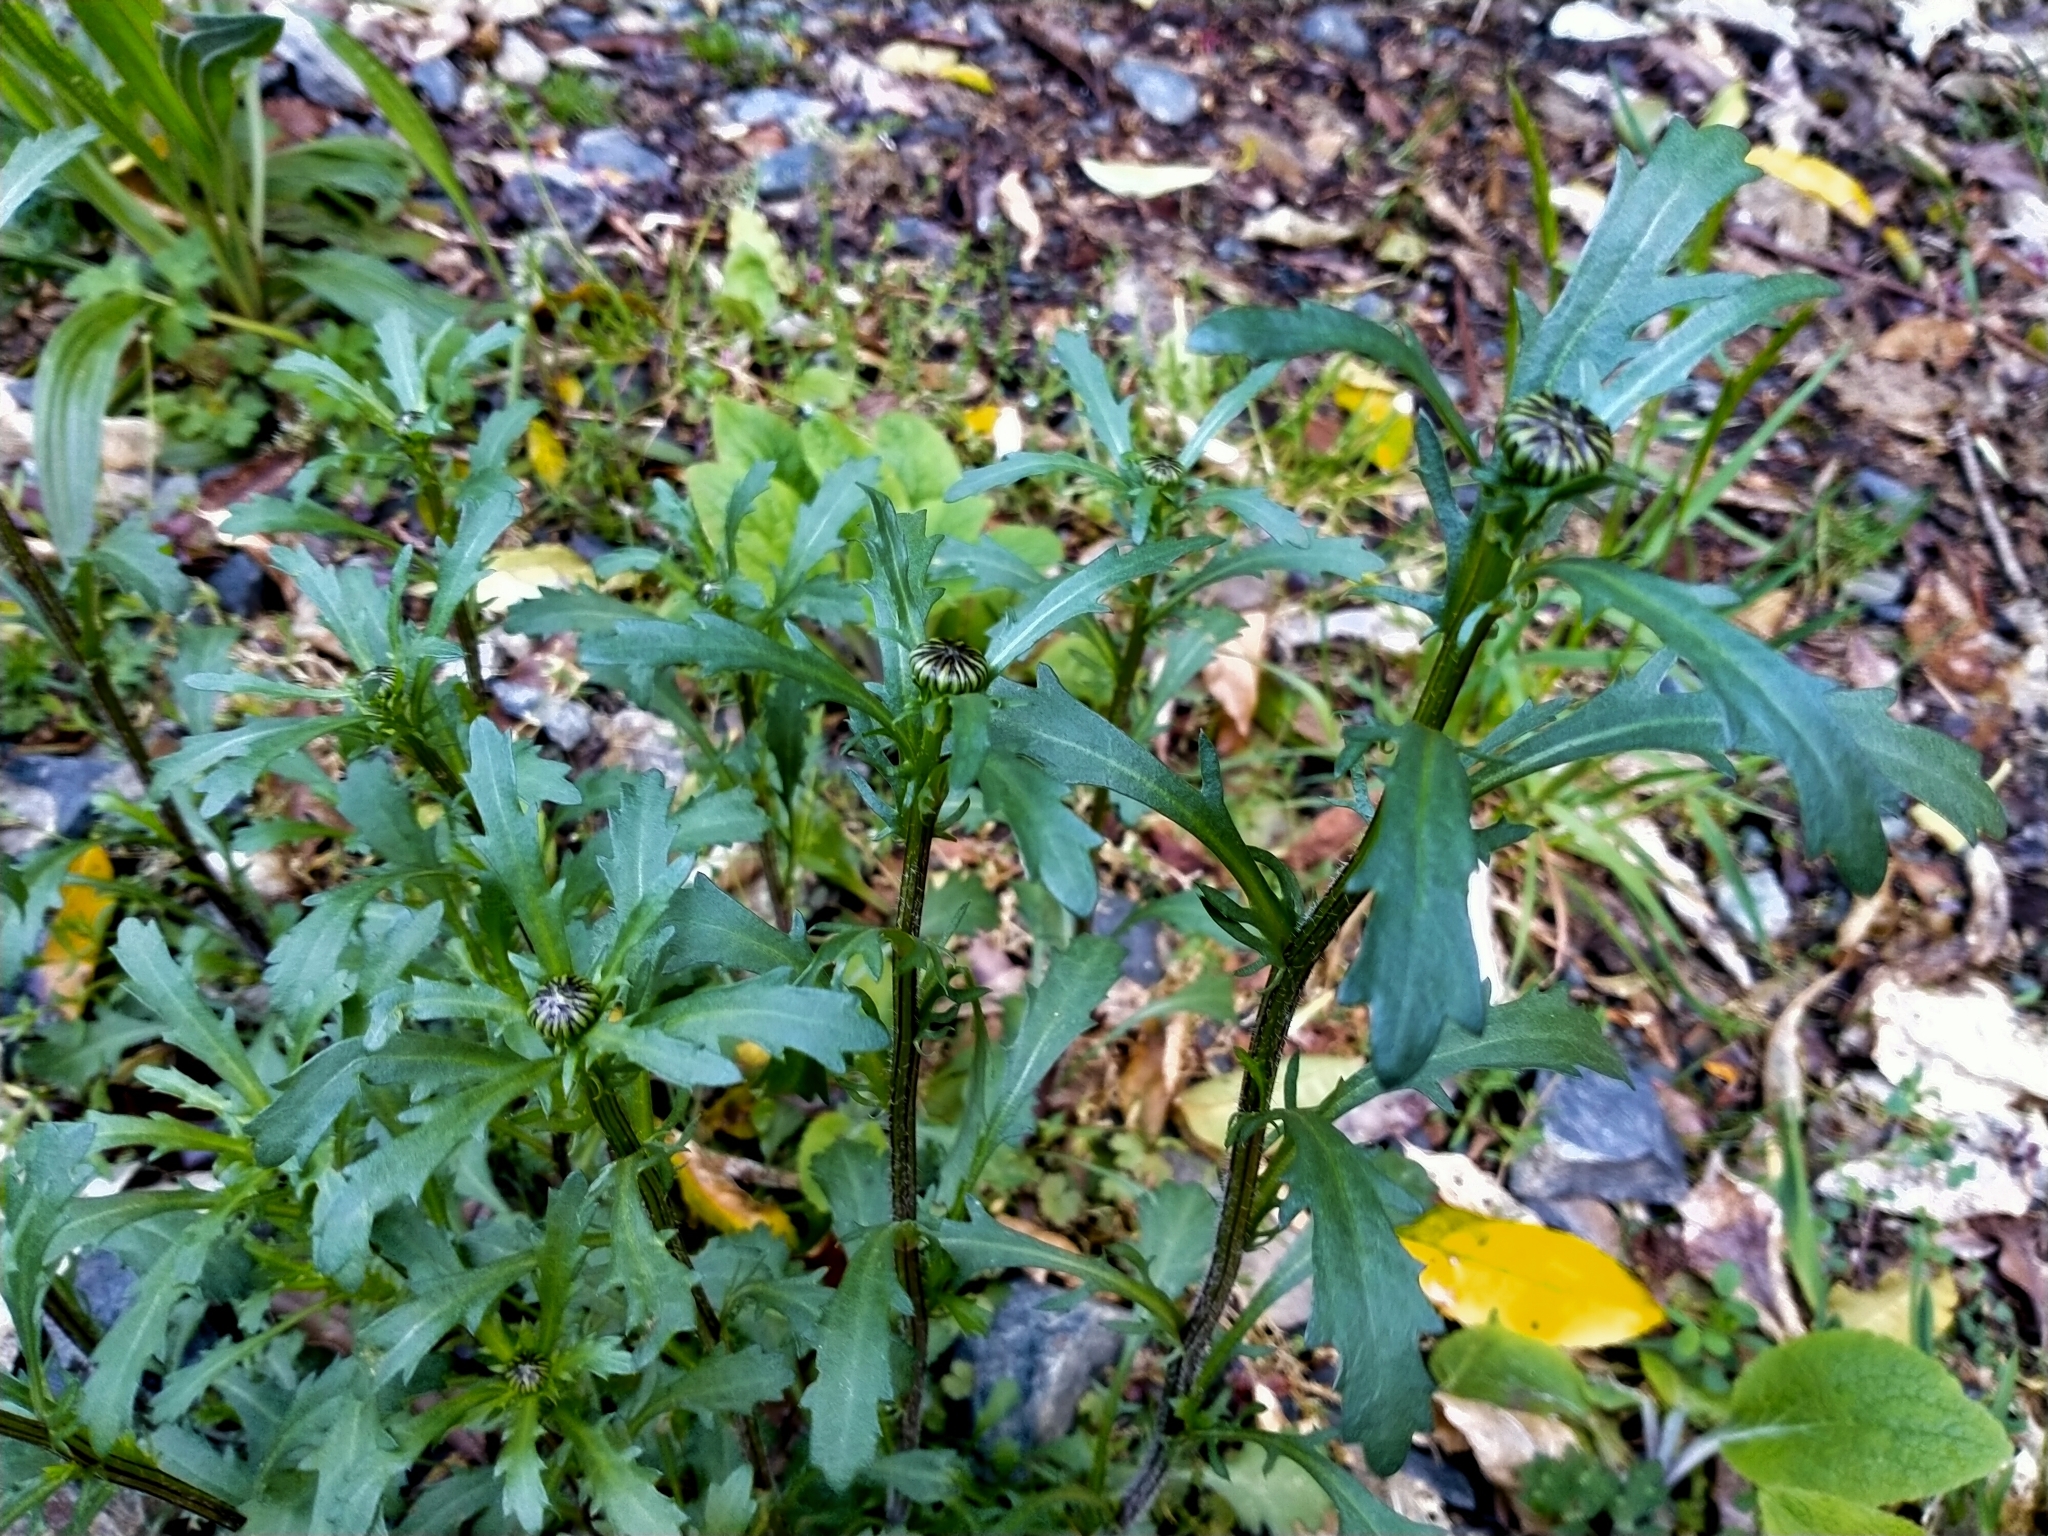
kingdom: Plantae
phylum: Tracheophyta
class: Magnoliopsida
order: Asterales
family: Asteraceae
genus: Leucanthemum
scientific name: Leucanthemum vulgare
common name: Oxeye daisy
